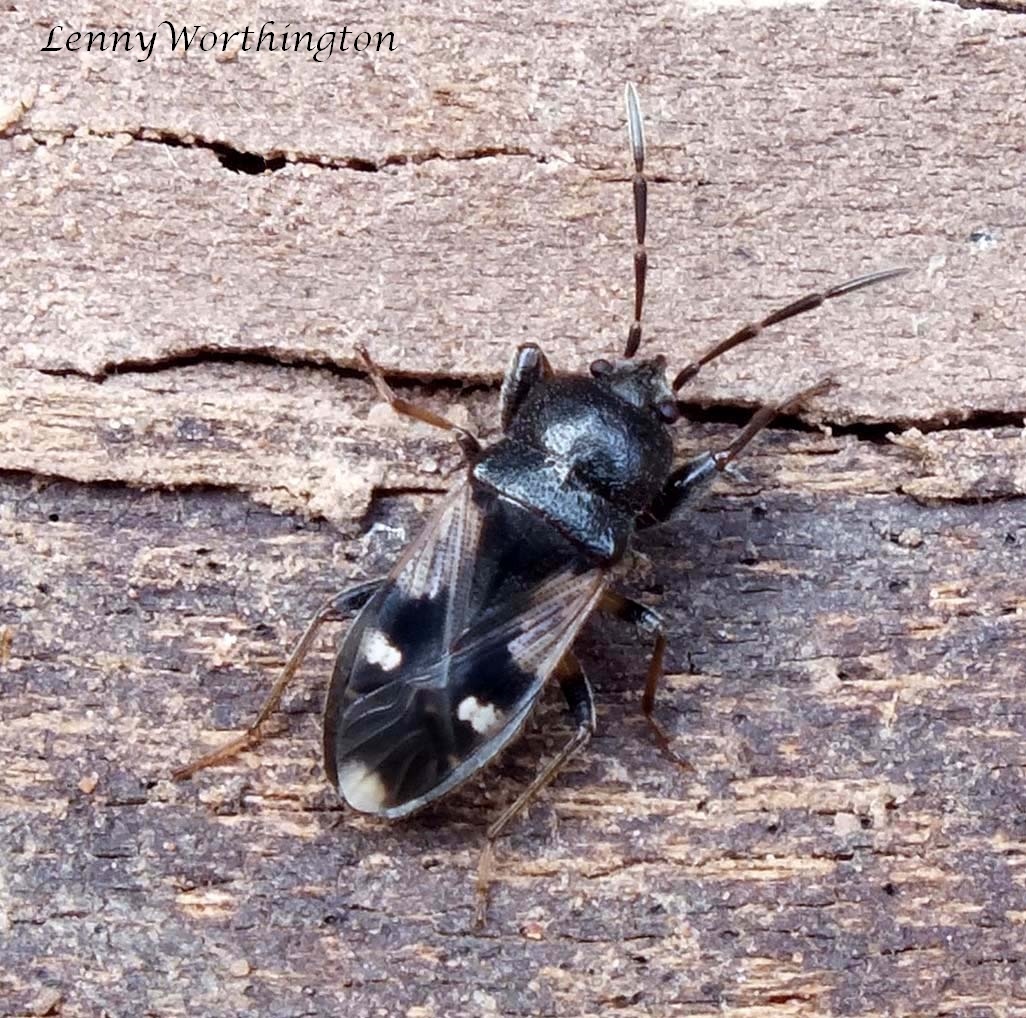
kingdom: Animalia
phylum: Arthropoda
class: Insecta
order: Hemiptera
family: Rhyparochromidae
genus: Polycrates
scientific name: Polycrates nexus
